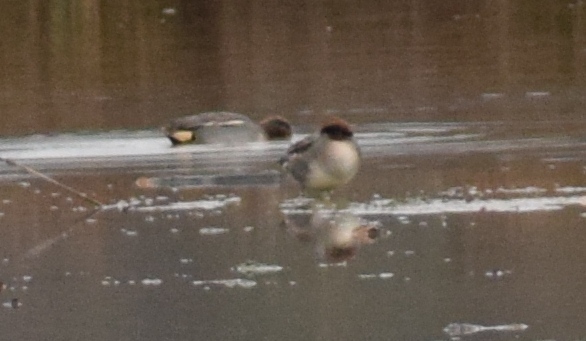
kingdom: Animalia
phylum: Chordata
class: Aves
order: Anseriformes
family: Anatidae
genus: Anas
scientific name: Anas crecca
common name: Eurasian teal
